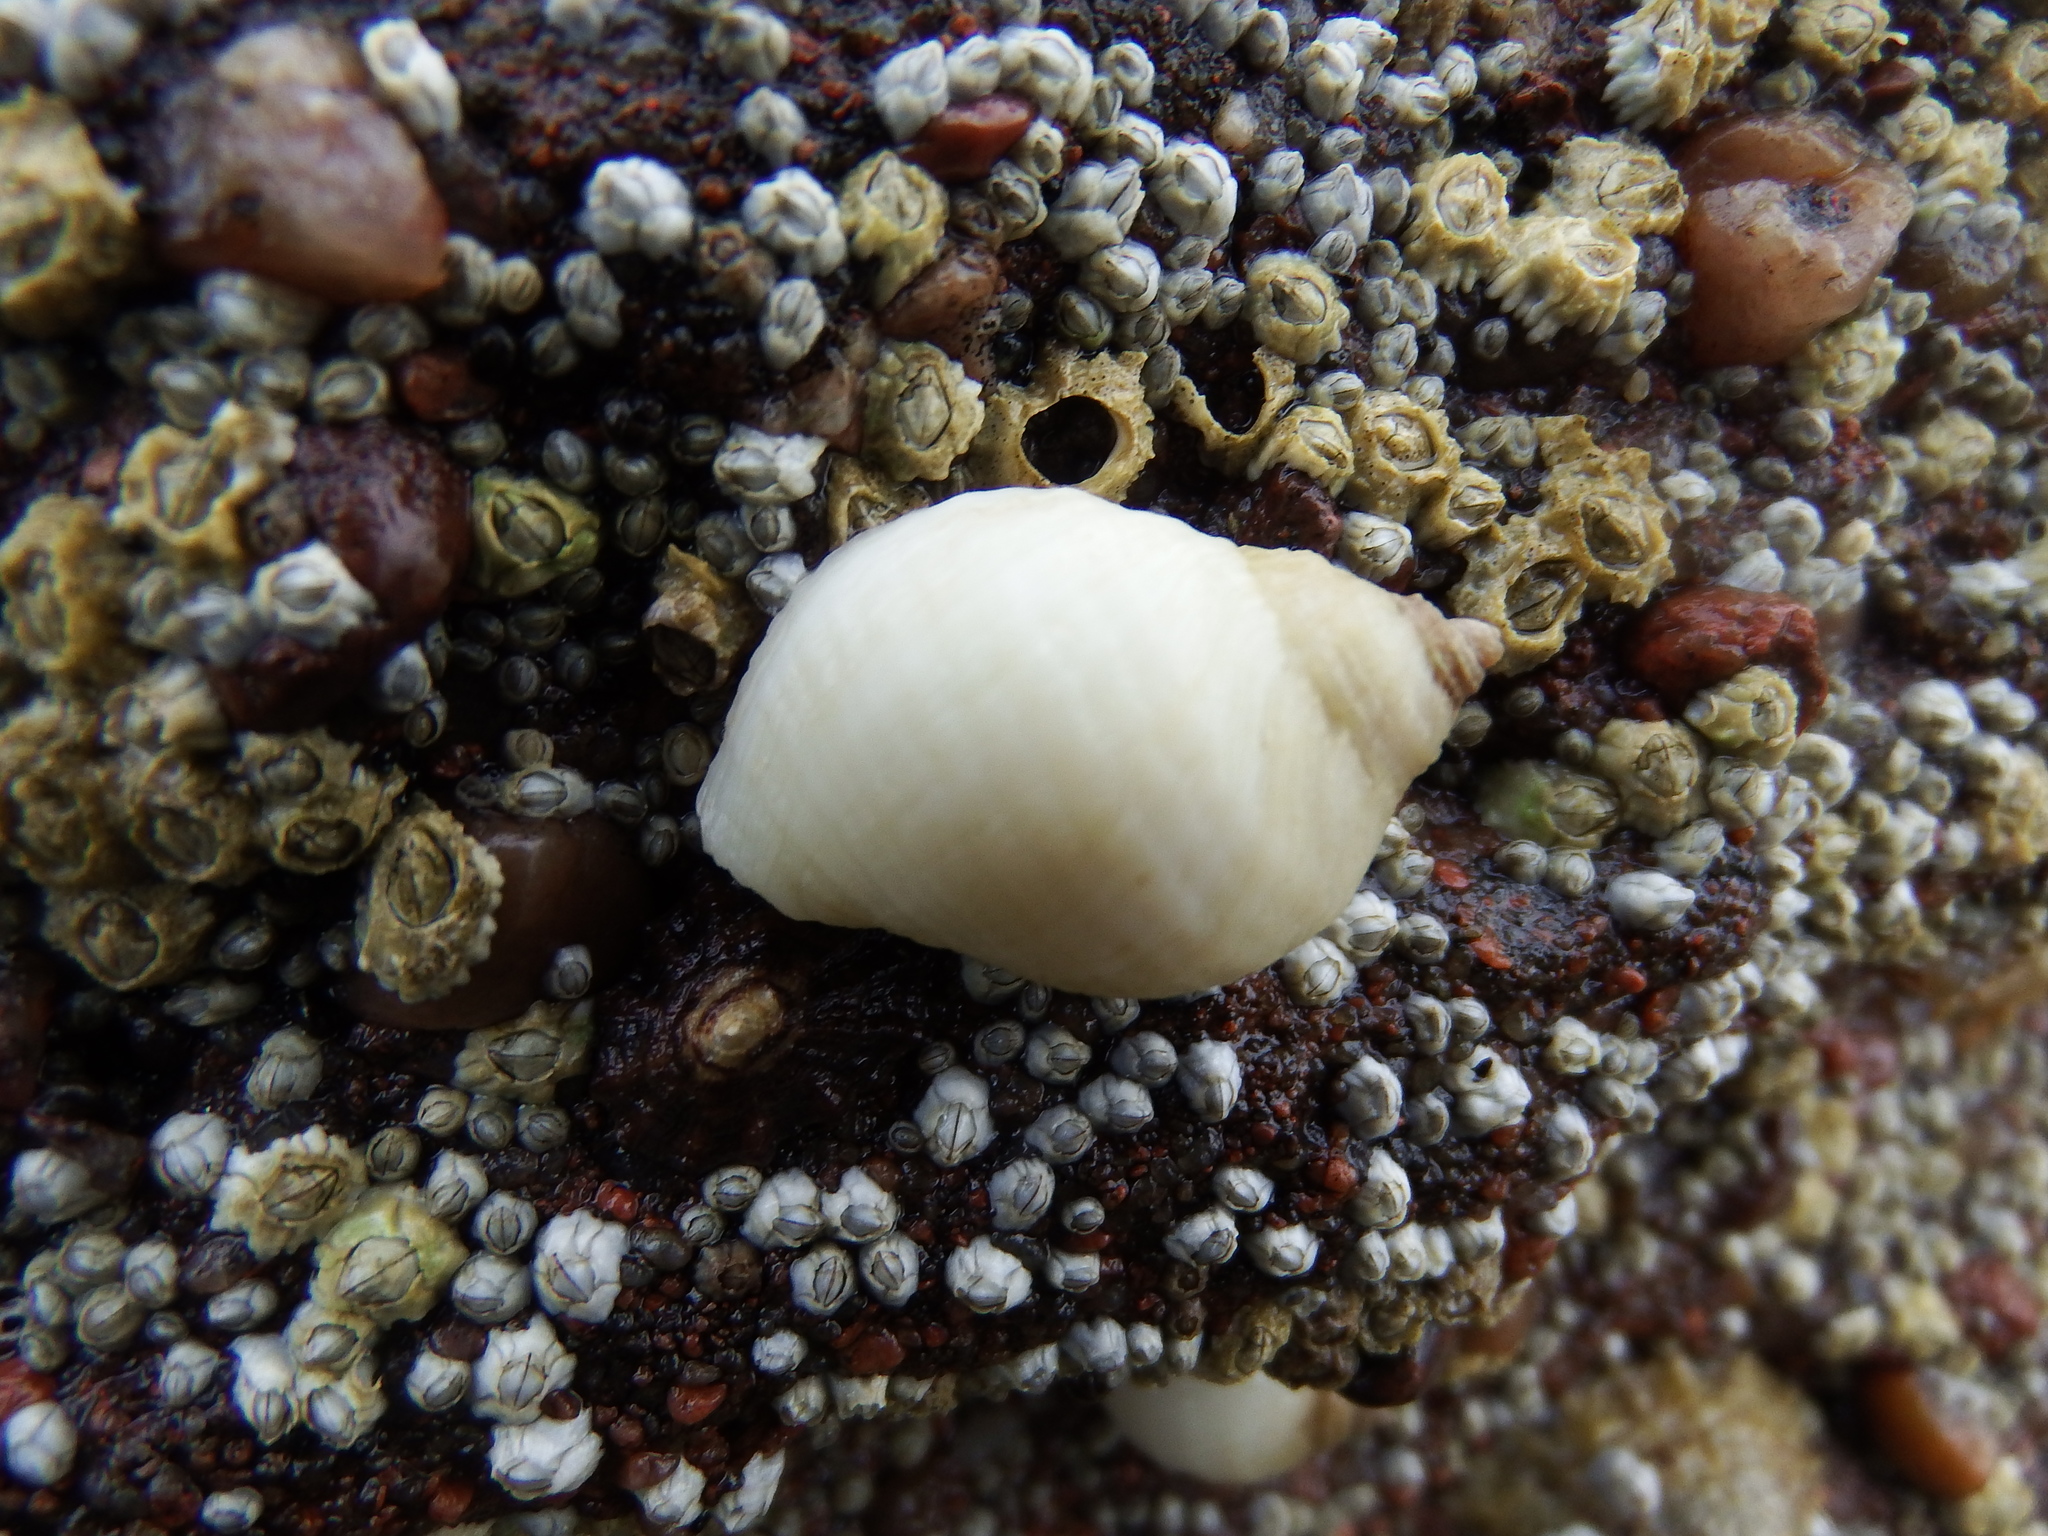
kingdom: Animalia
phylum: Mollusca
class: Gastropoda
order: Neogastropoda
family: Muricidae
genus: Nucella
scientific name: Nucella lapillus
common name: Dog whelk
